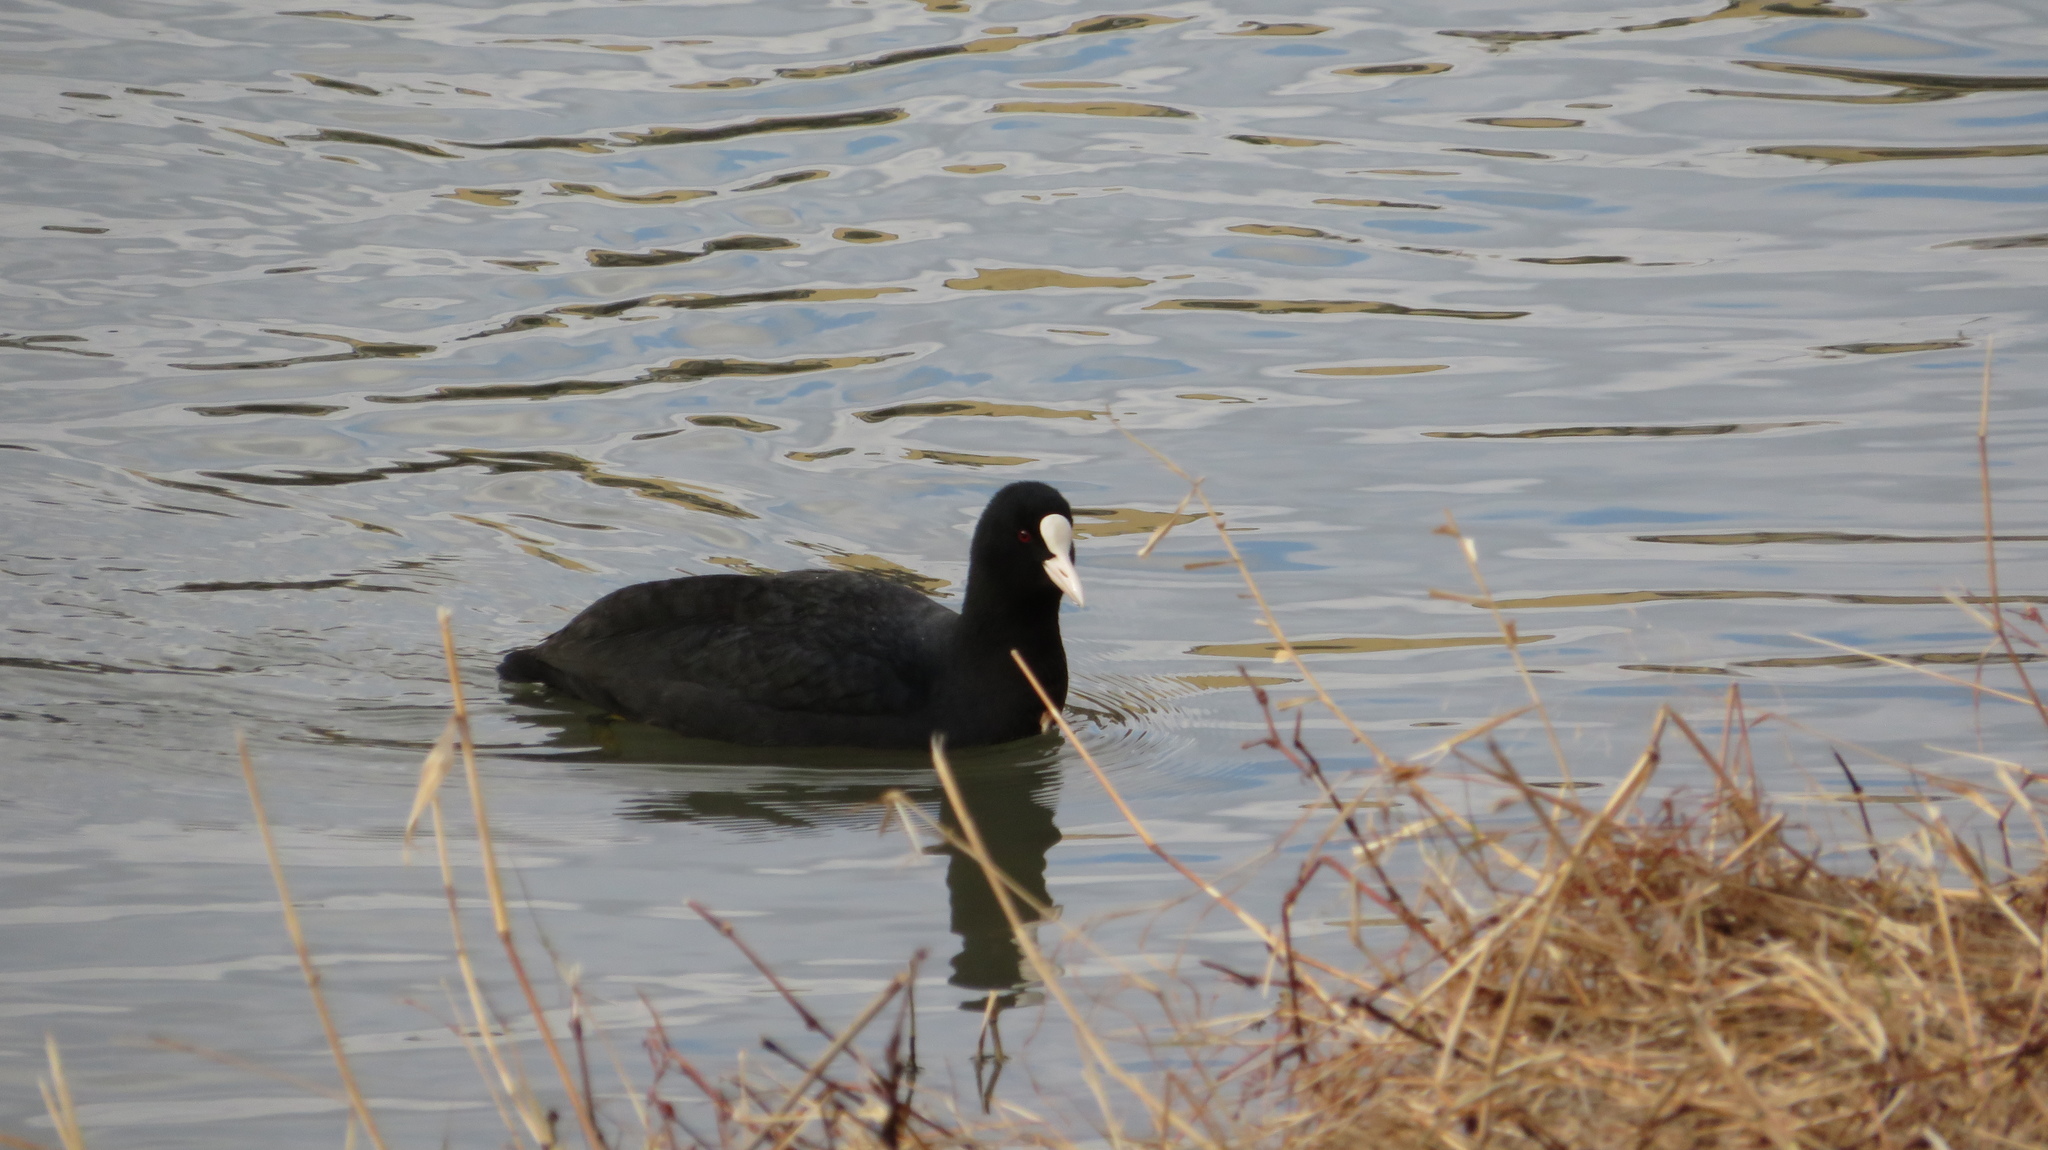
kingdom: Animalia
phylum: Chordata
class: Aves
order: Gruiformes
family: Rallidae
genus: Fulica
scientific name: Fulica atra
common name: Eurasian coot
